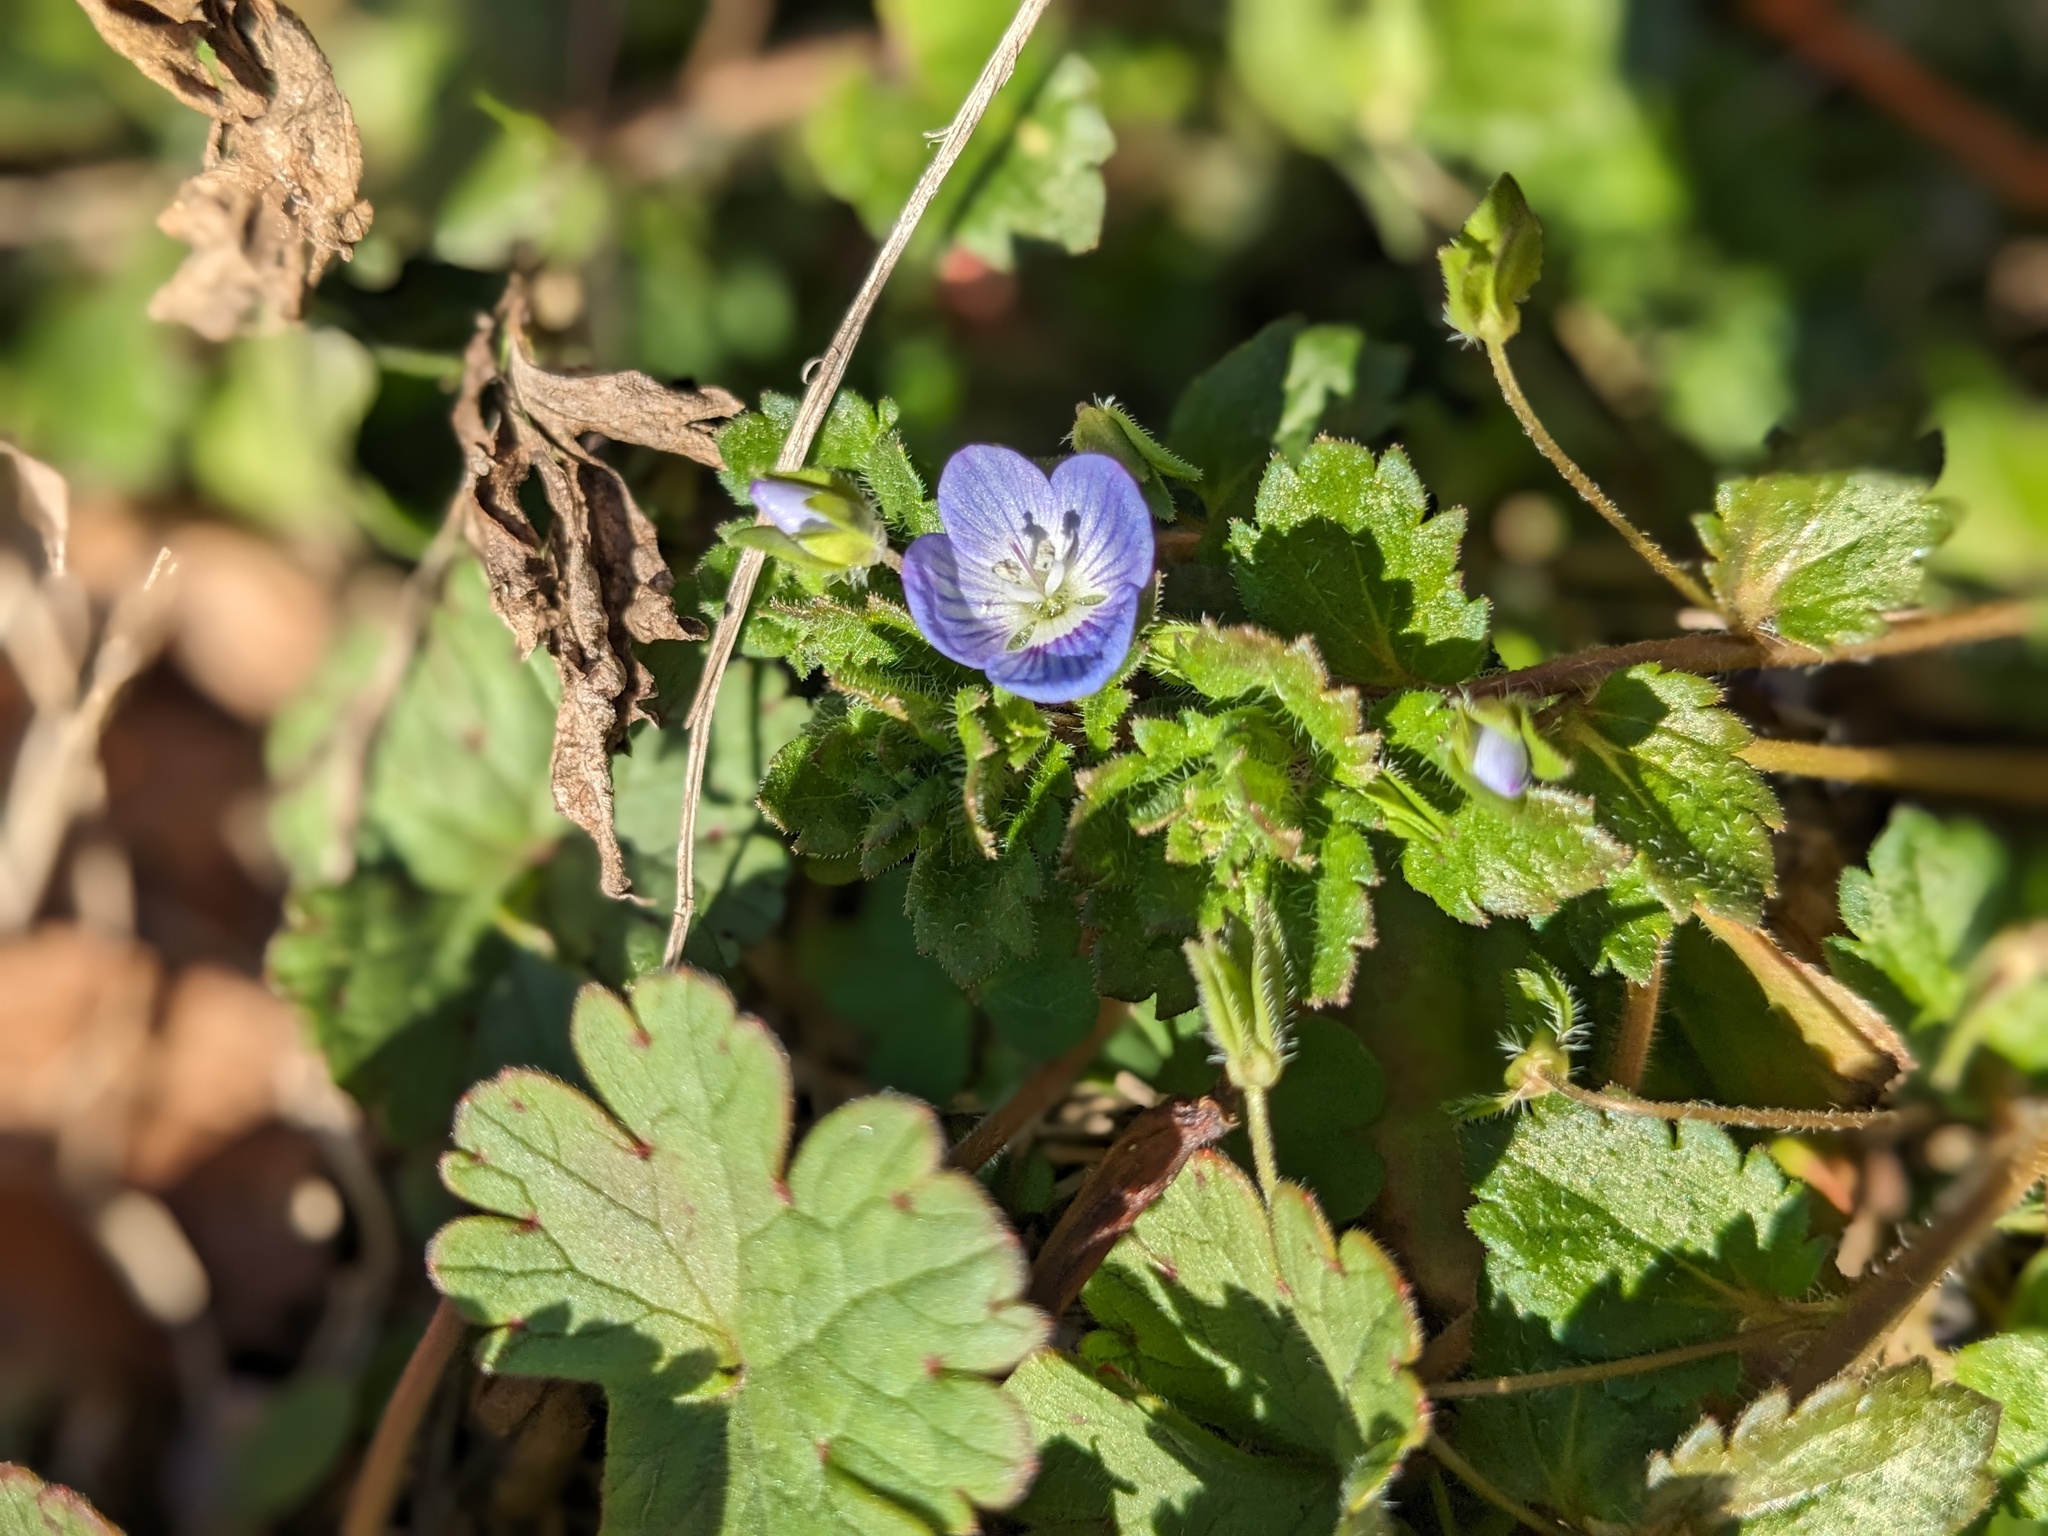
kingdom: Plantae
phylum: Tracheophyta
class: Magnoliopsida
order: Lamiales
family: Plantaginaceae
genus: Veronica
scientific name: Veronica persica
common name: Common field-speedwell
